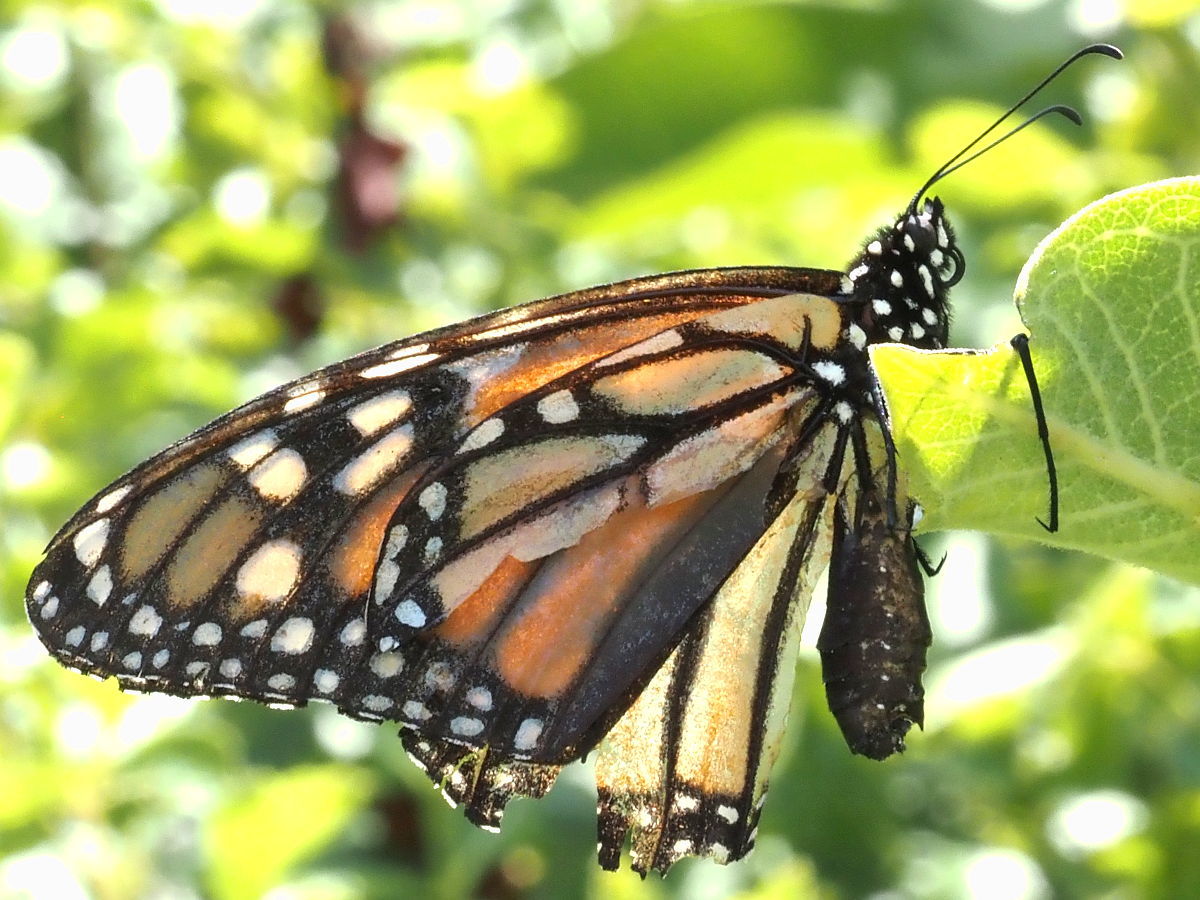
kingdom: Animalia
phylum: Arthropoda
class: Insecta
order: Lepidoptera
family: Nymphalidae
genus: Danaus
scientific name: Danaus plexippus
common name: Monarch
